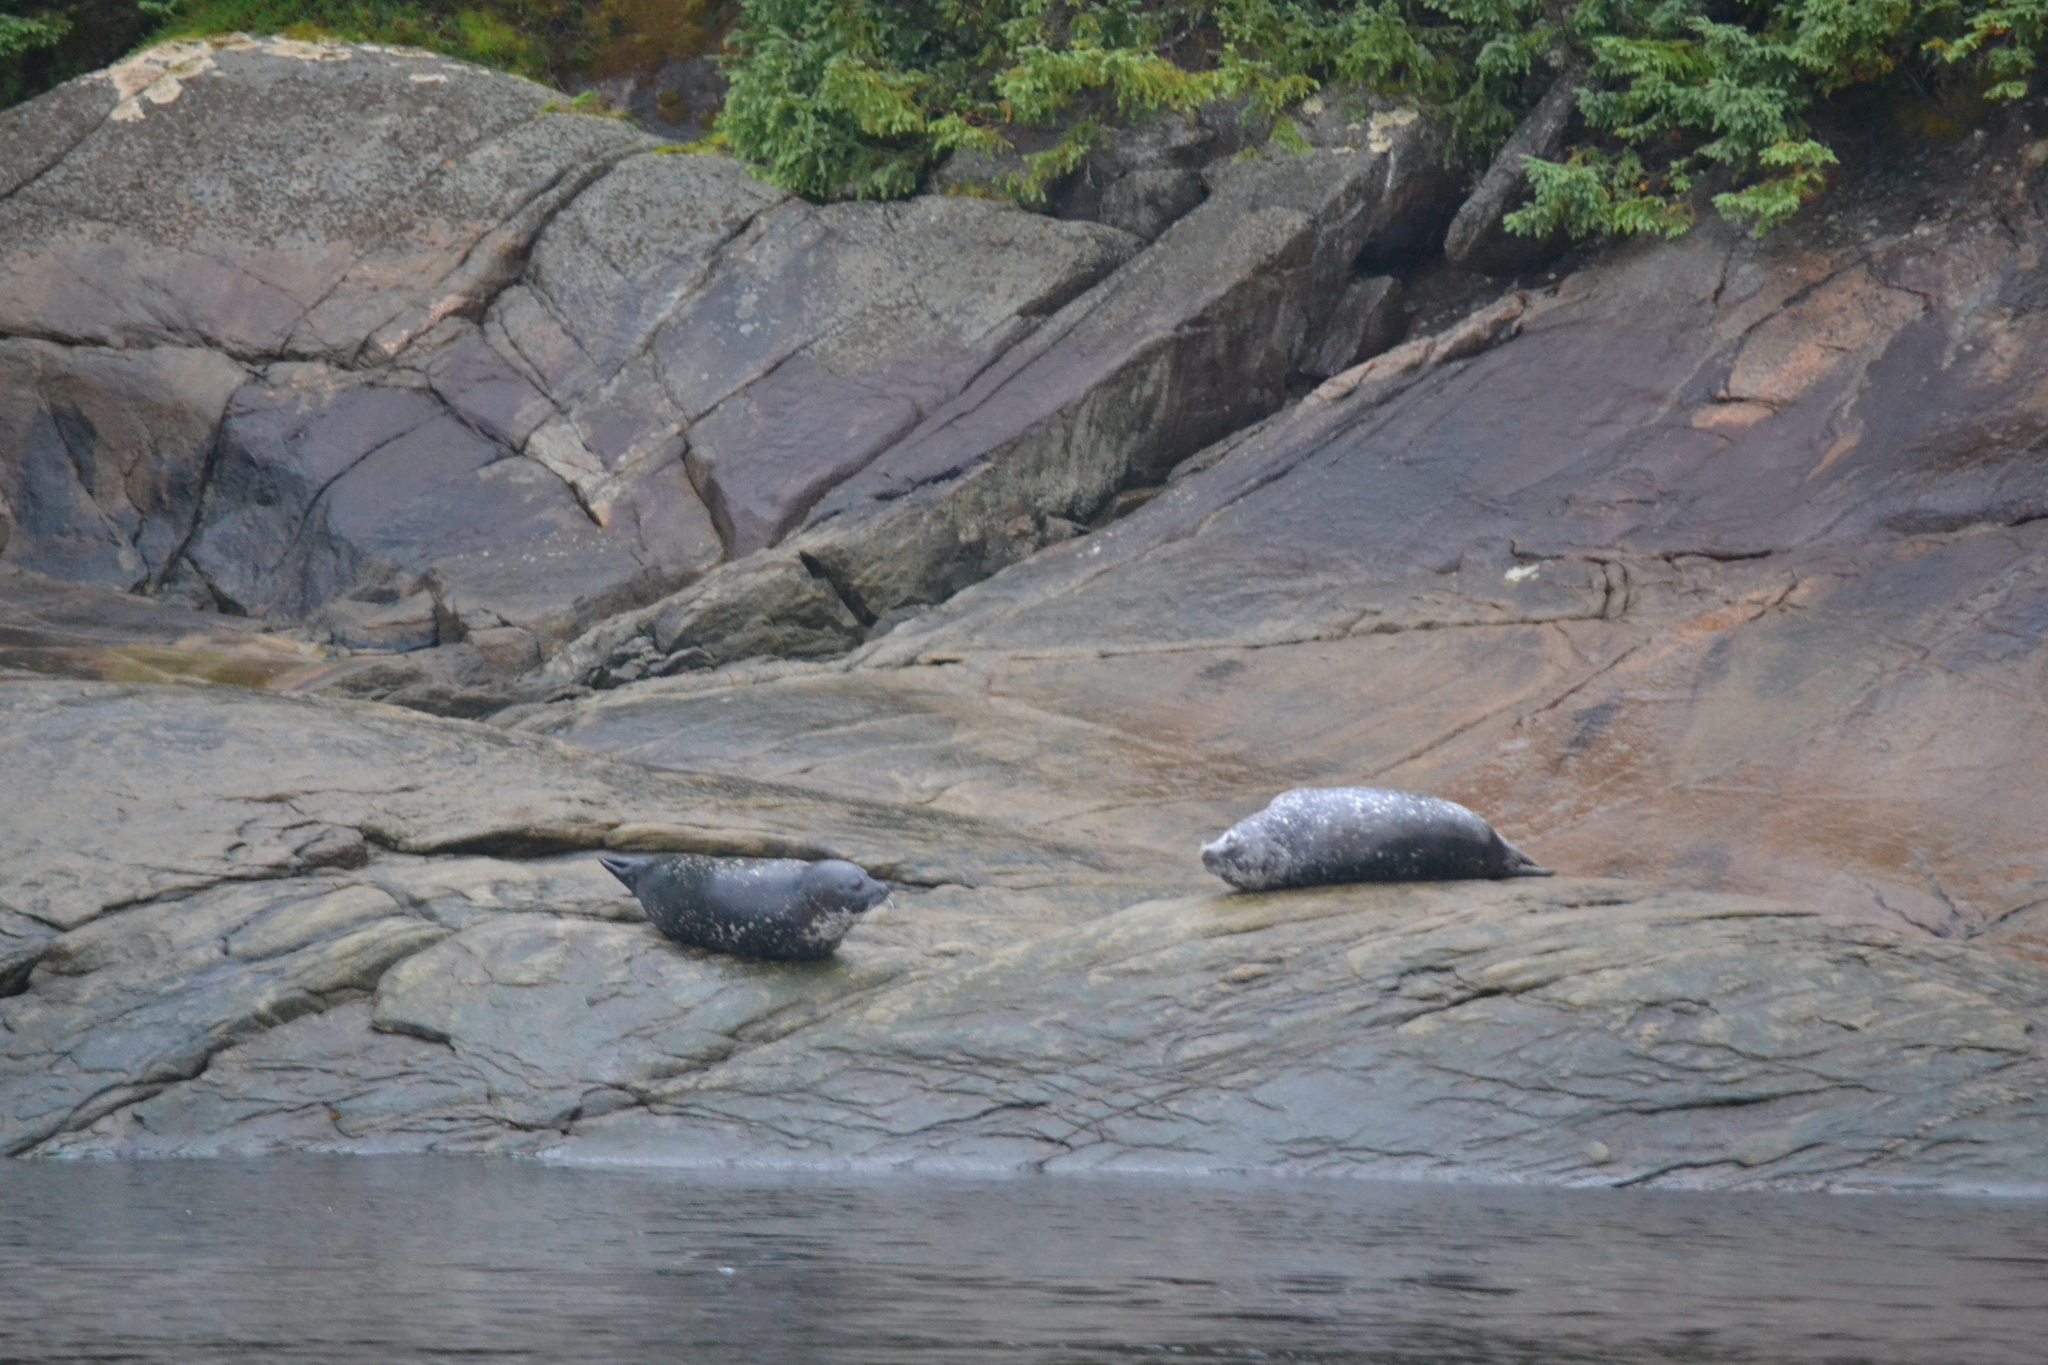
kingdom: Animalia
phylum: Chordata
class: Mammalia
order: Carnivora
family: Phocidae
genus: Phoca
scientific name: Phoca vitulina
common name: Harbor seal
